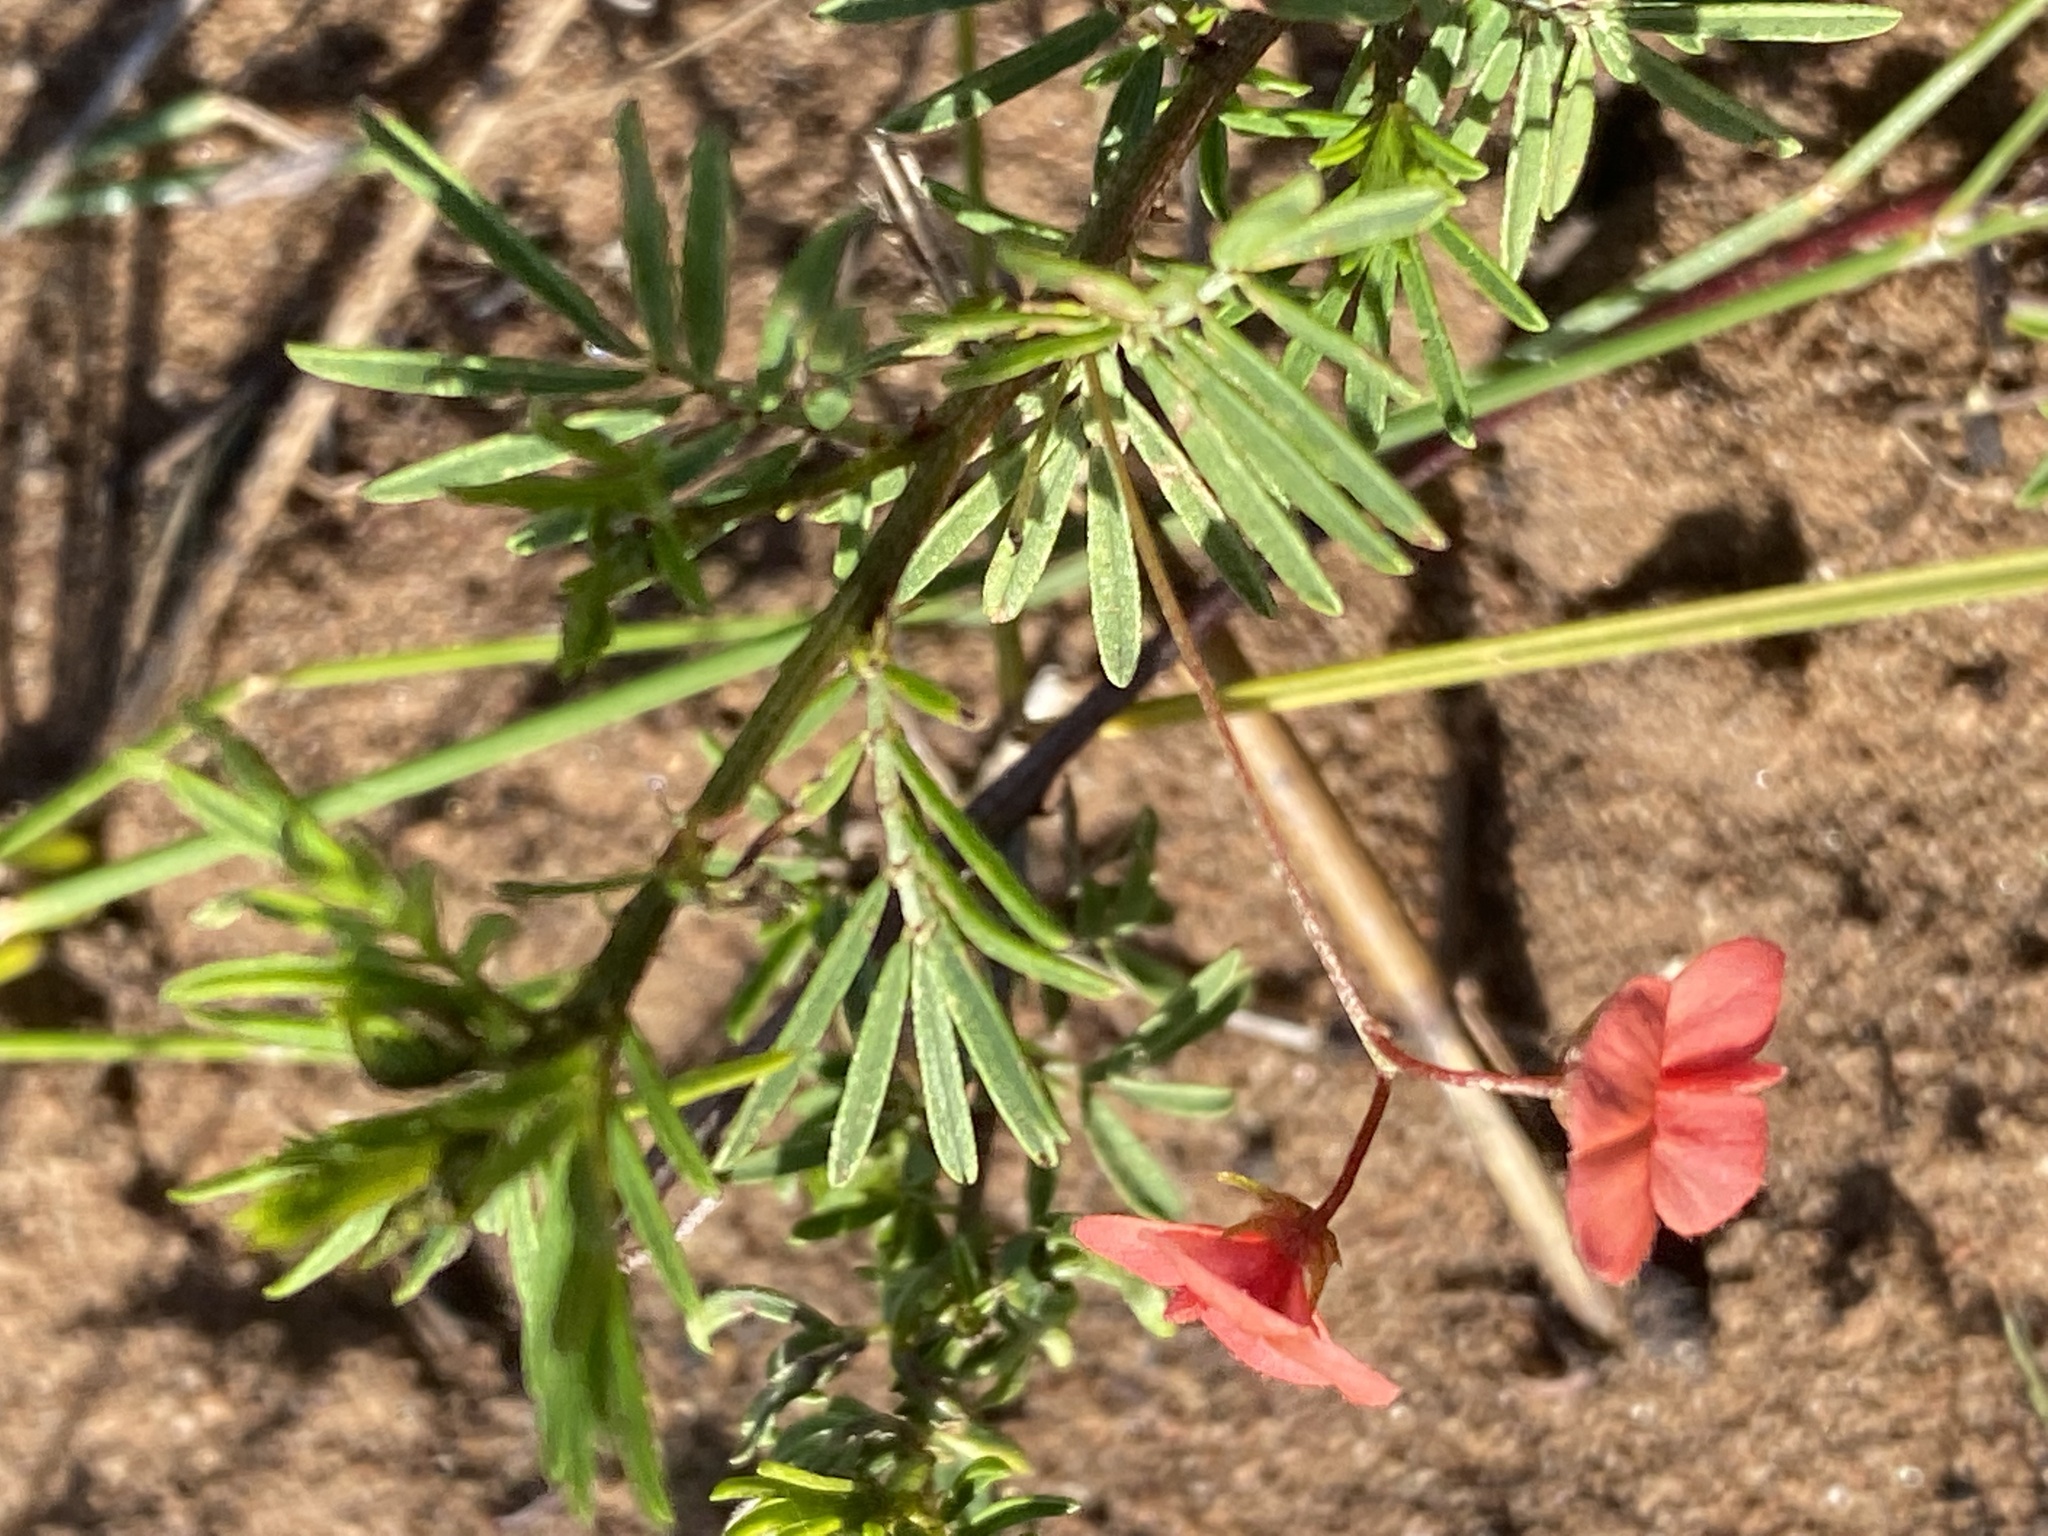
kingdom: Plantae
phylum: Tracheophyta
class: Magnoliopsida
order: Fabales
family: Fabaceae
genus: Indigofera
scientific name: Indigofera verrucosa
